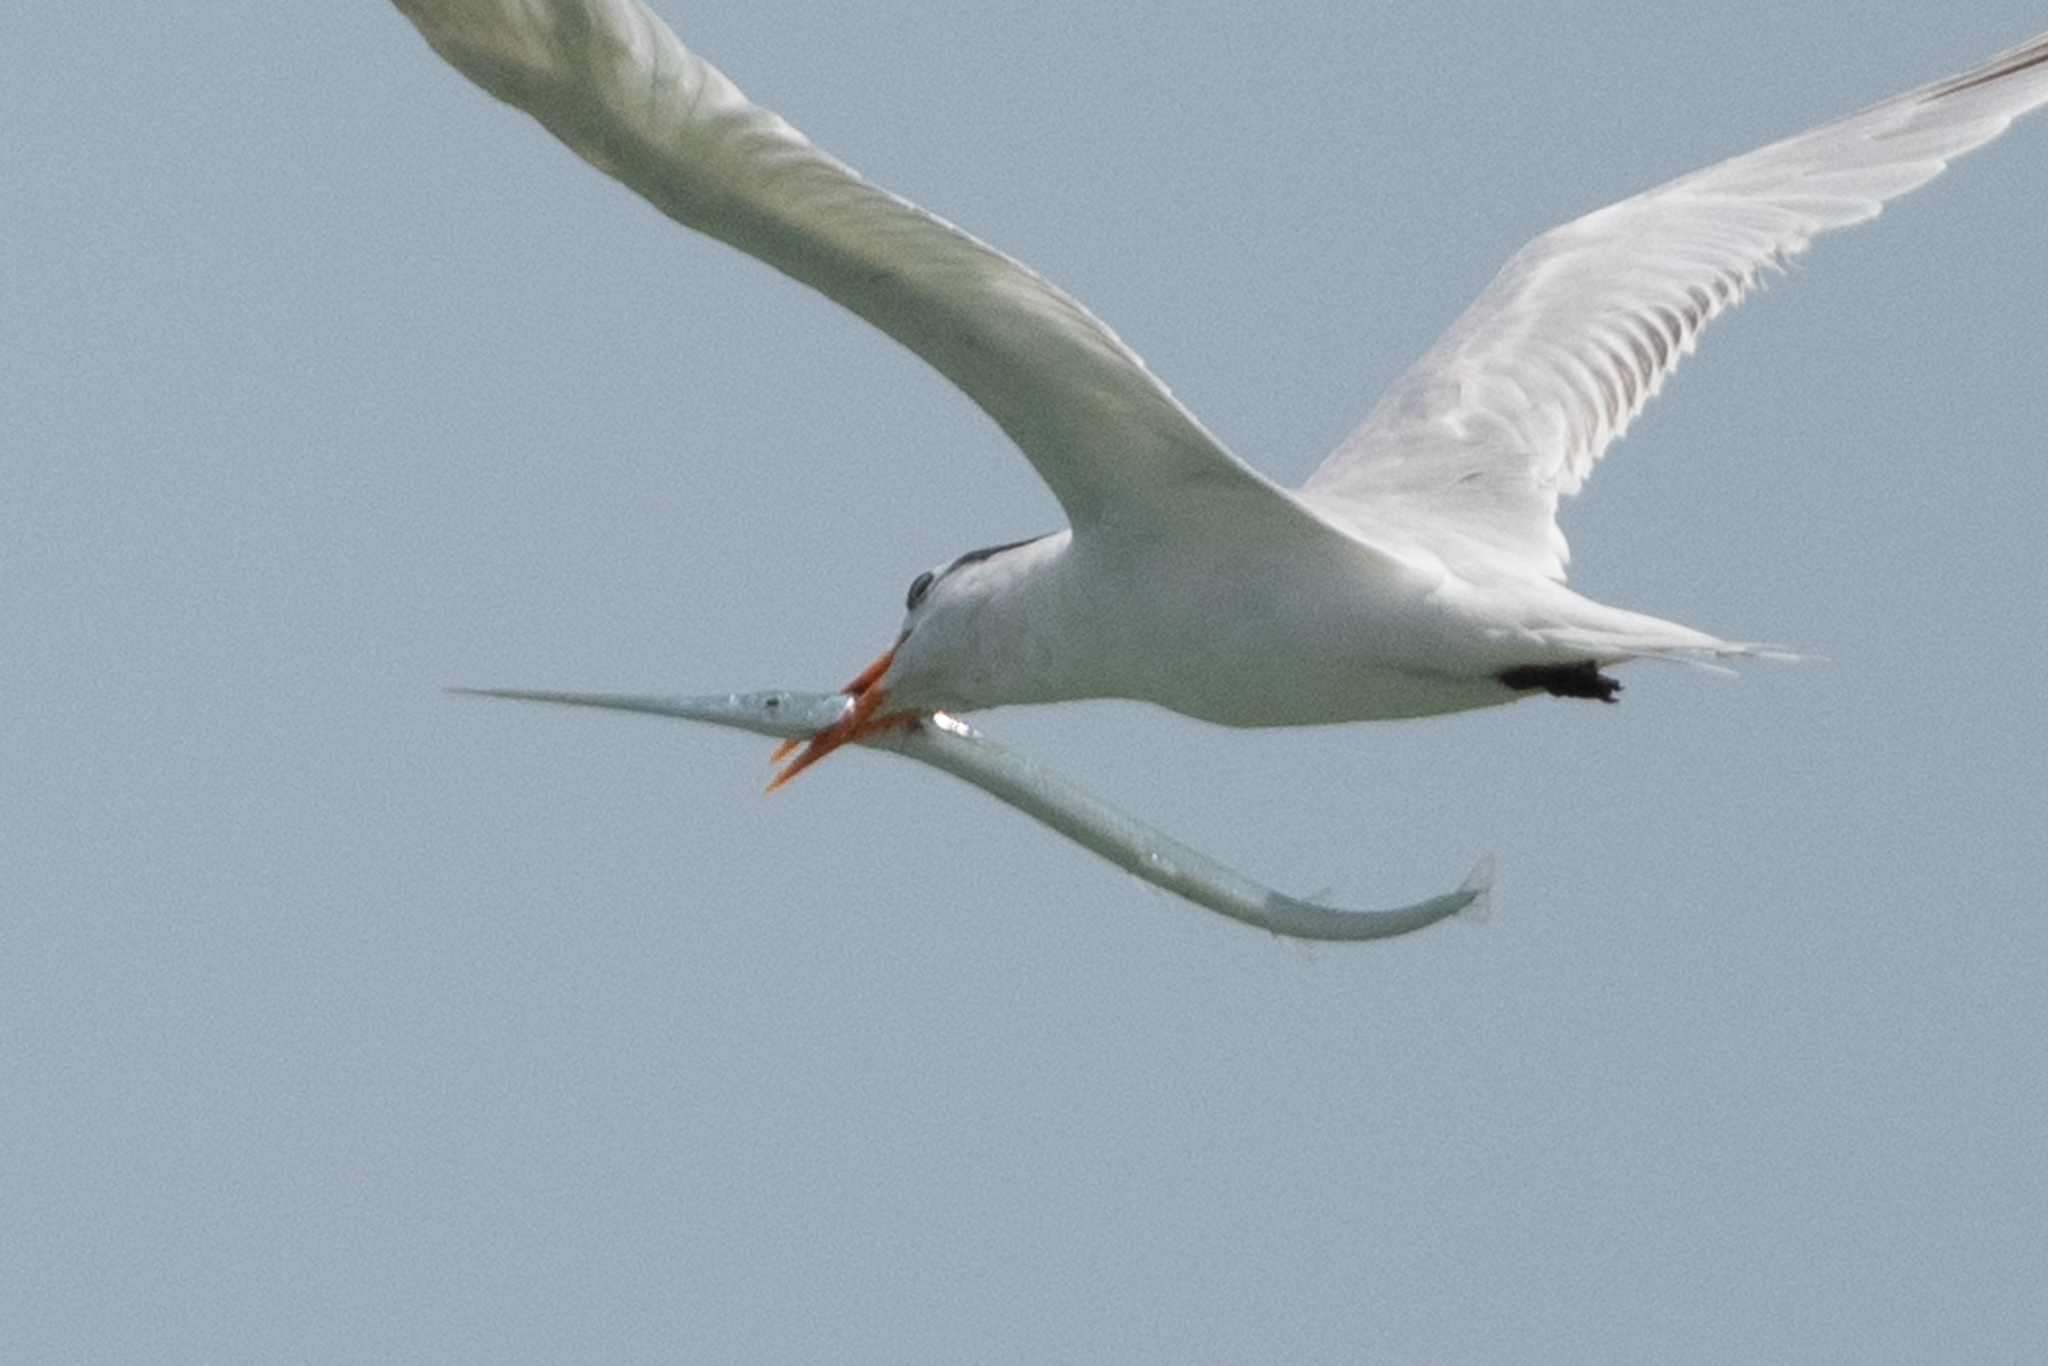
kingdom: Animalia
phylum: Chordata
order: Beloniformes
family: Belonidae
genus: Platybelone
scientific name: Platybelone argalus
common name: Keeltail needlefish
